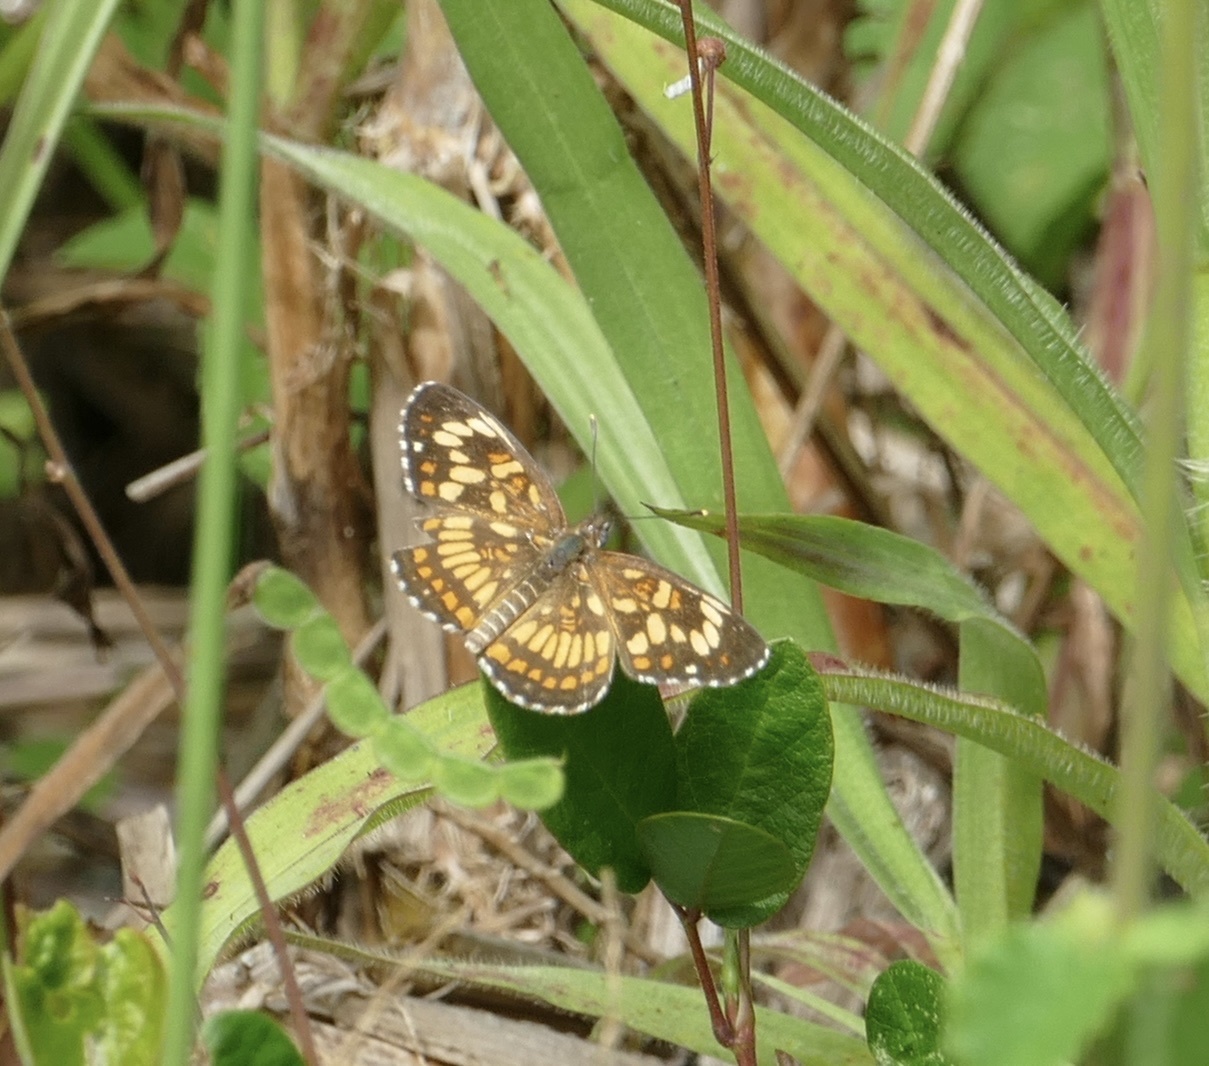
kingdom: Animalia
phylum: Arthropoda
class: Insecta
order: Lepidoptera
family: Nymphalidae
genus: Thessalia
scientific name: Thessalia theona
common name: Nymphalid moth
